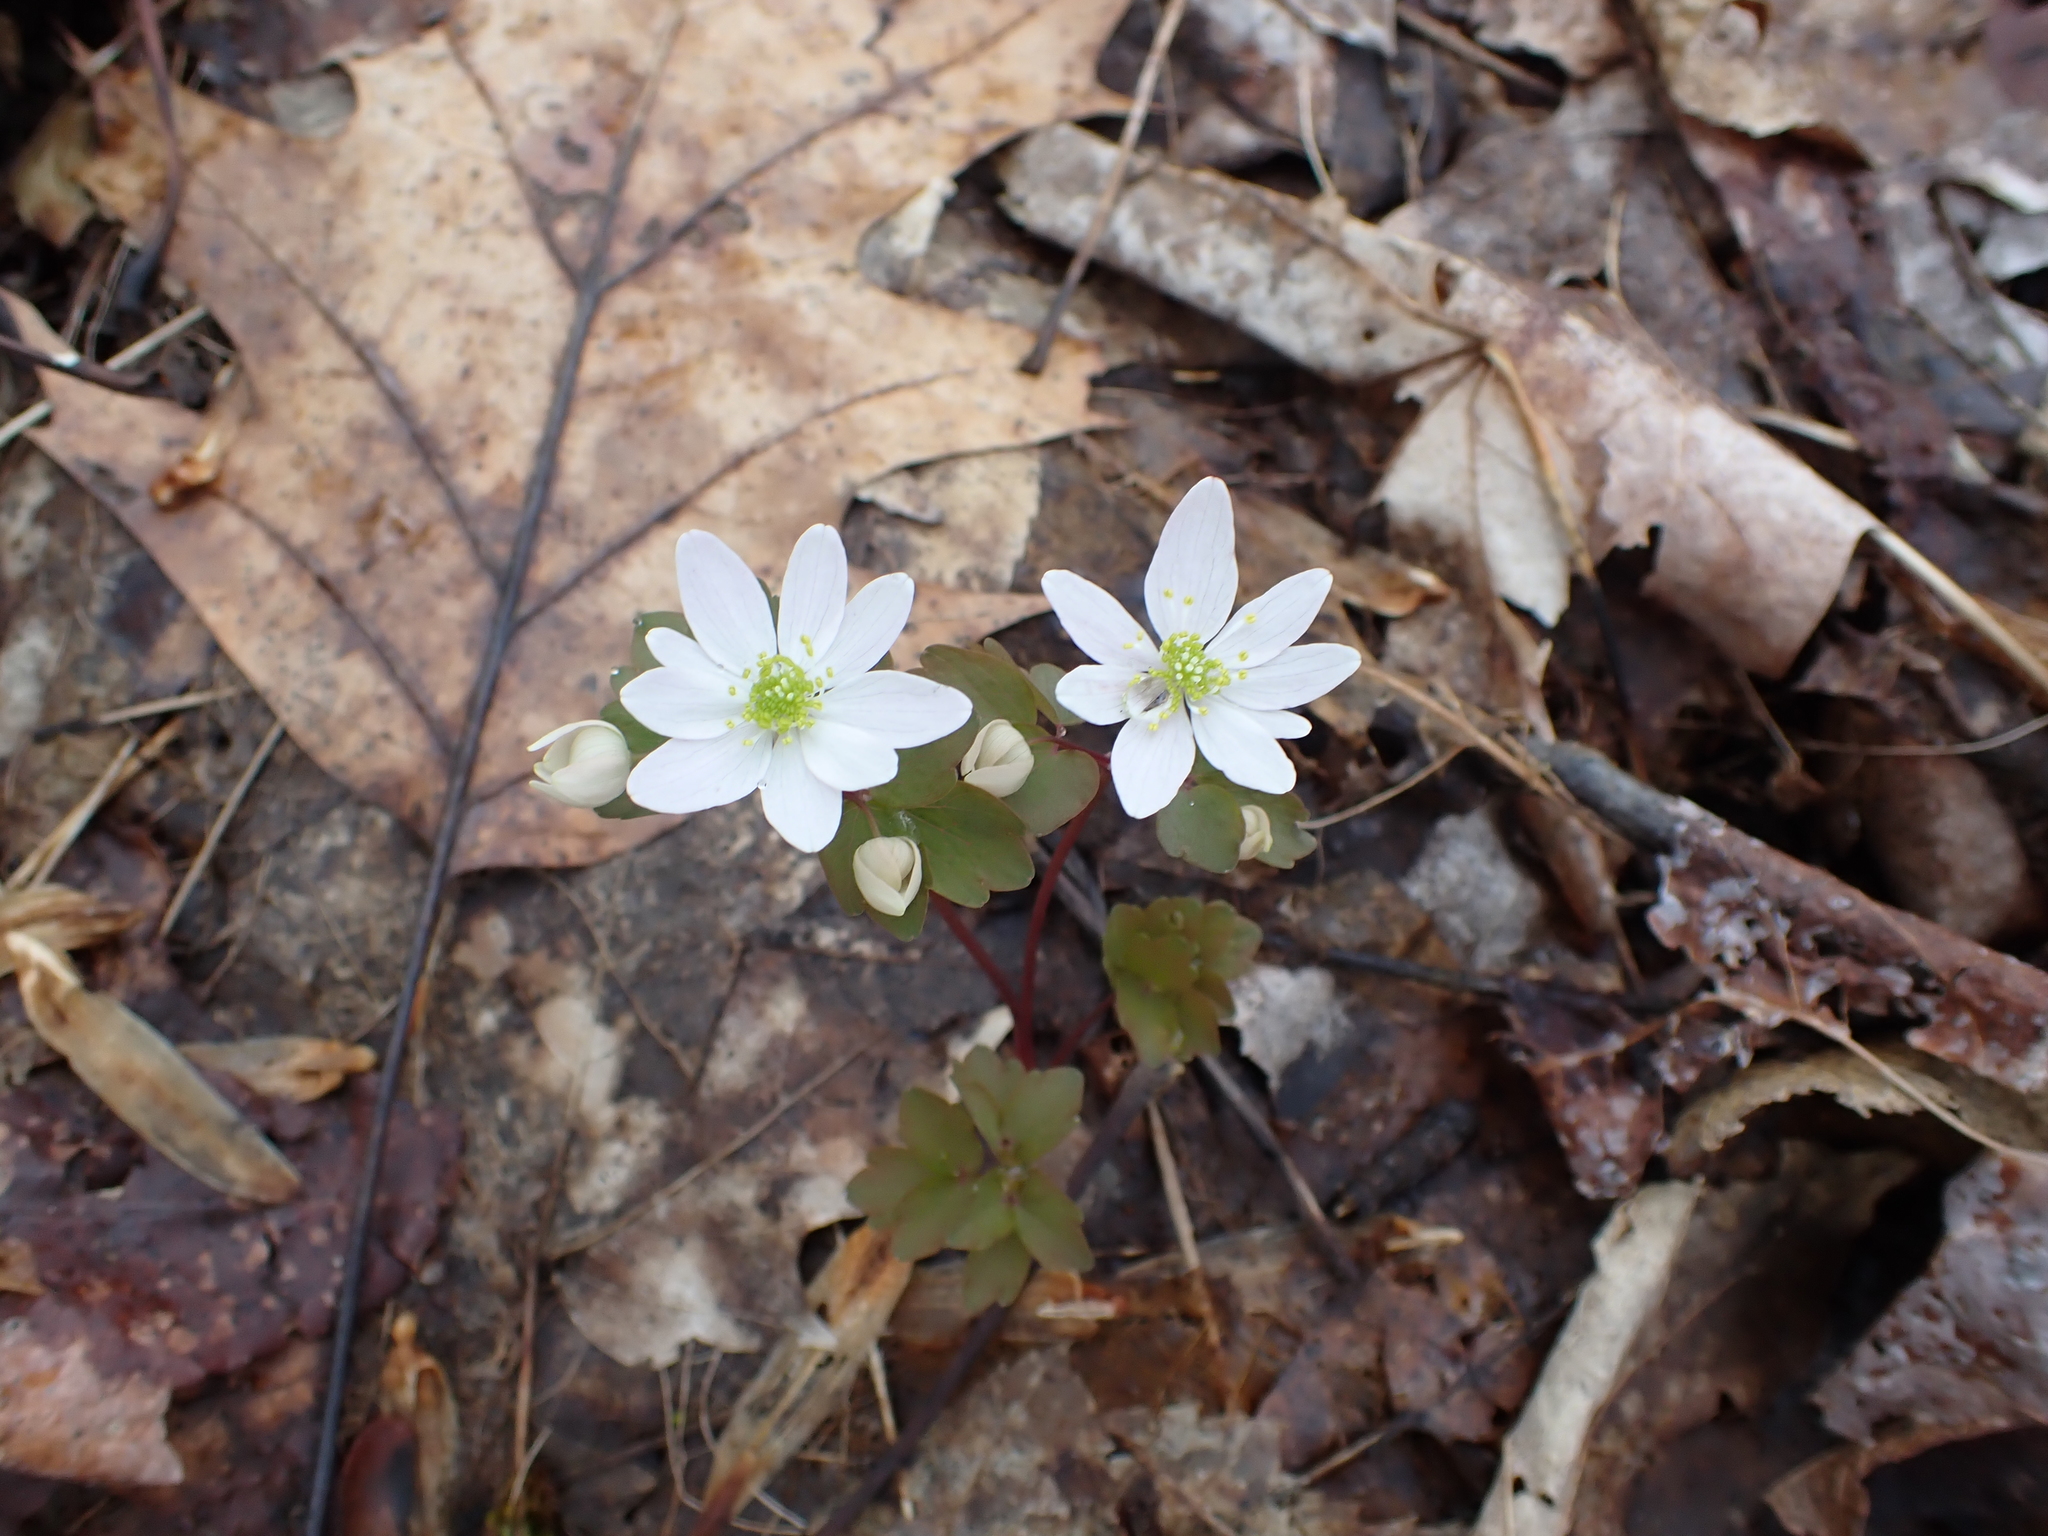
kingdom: Plantae
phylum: Tracheophyta
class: Magnoliopsida
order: Ranunculales
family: Ranunculaceae
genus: Thalictrum
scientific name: Thalictrum thalictroides
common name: Rue-anemone
